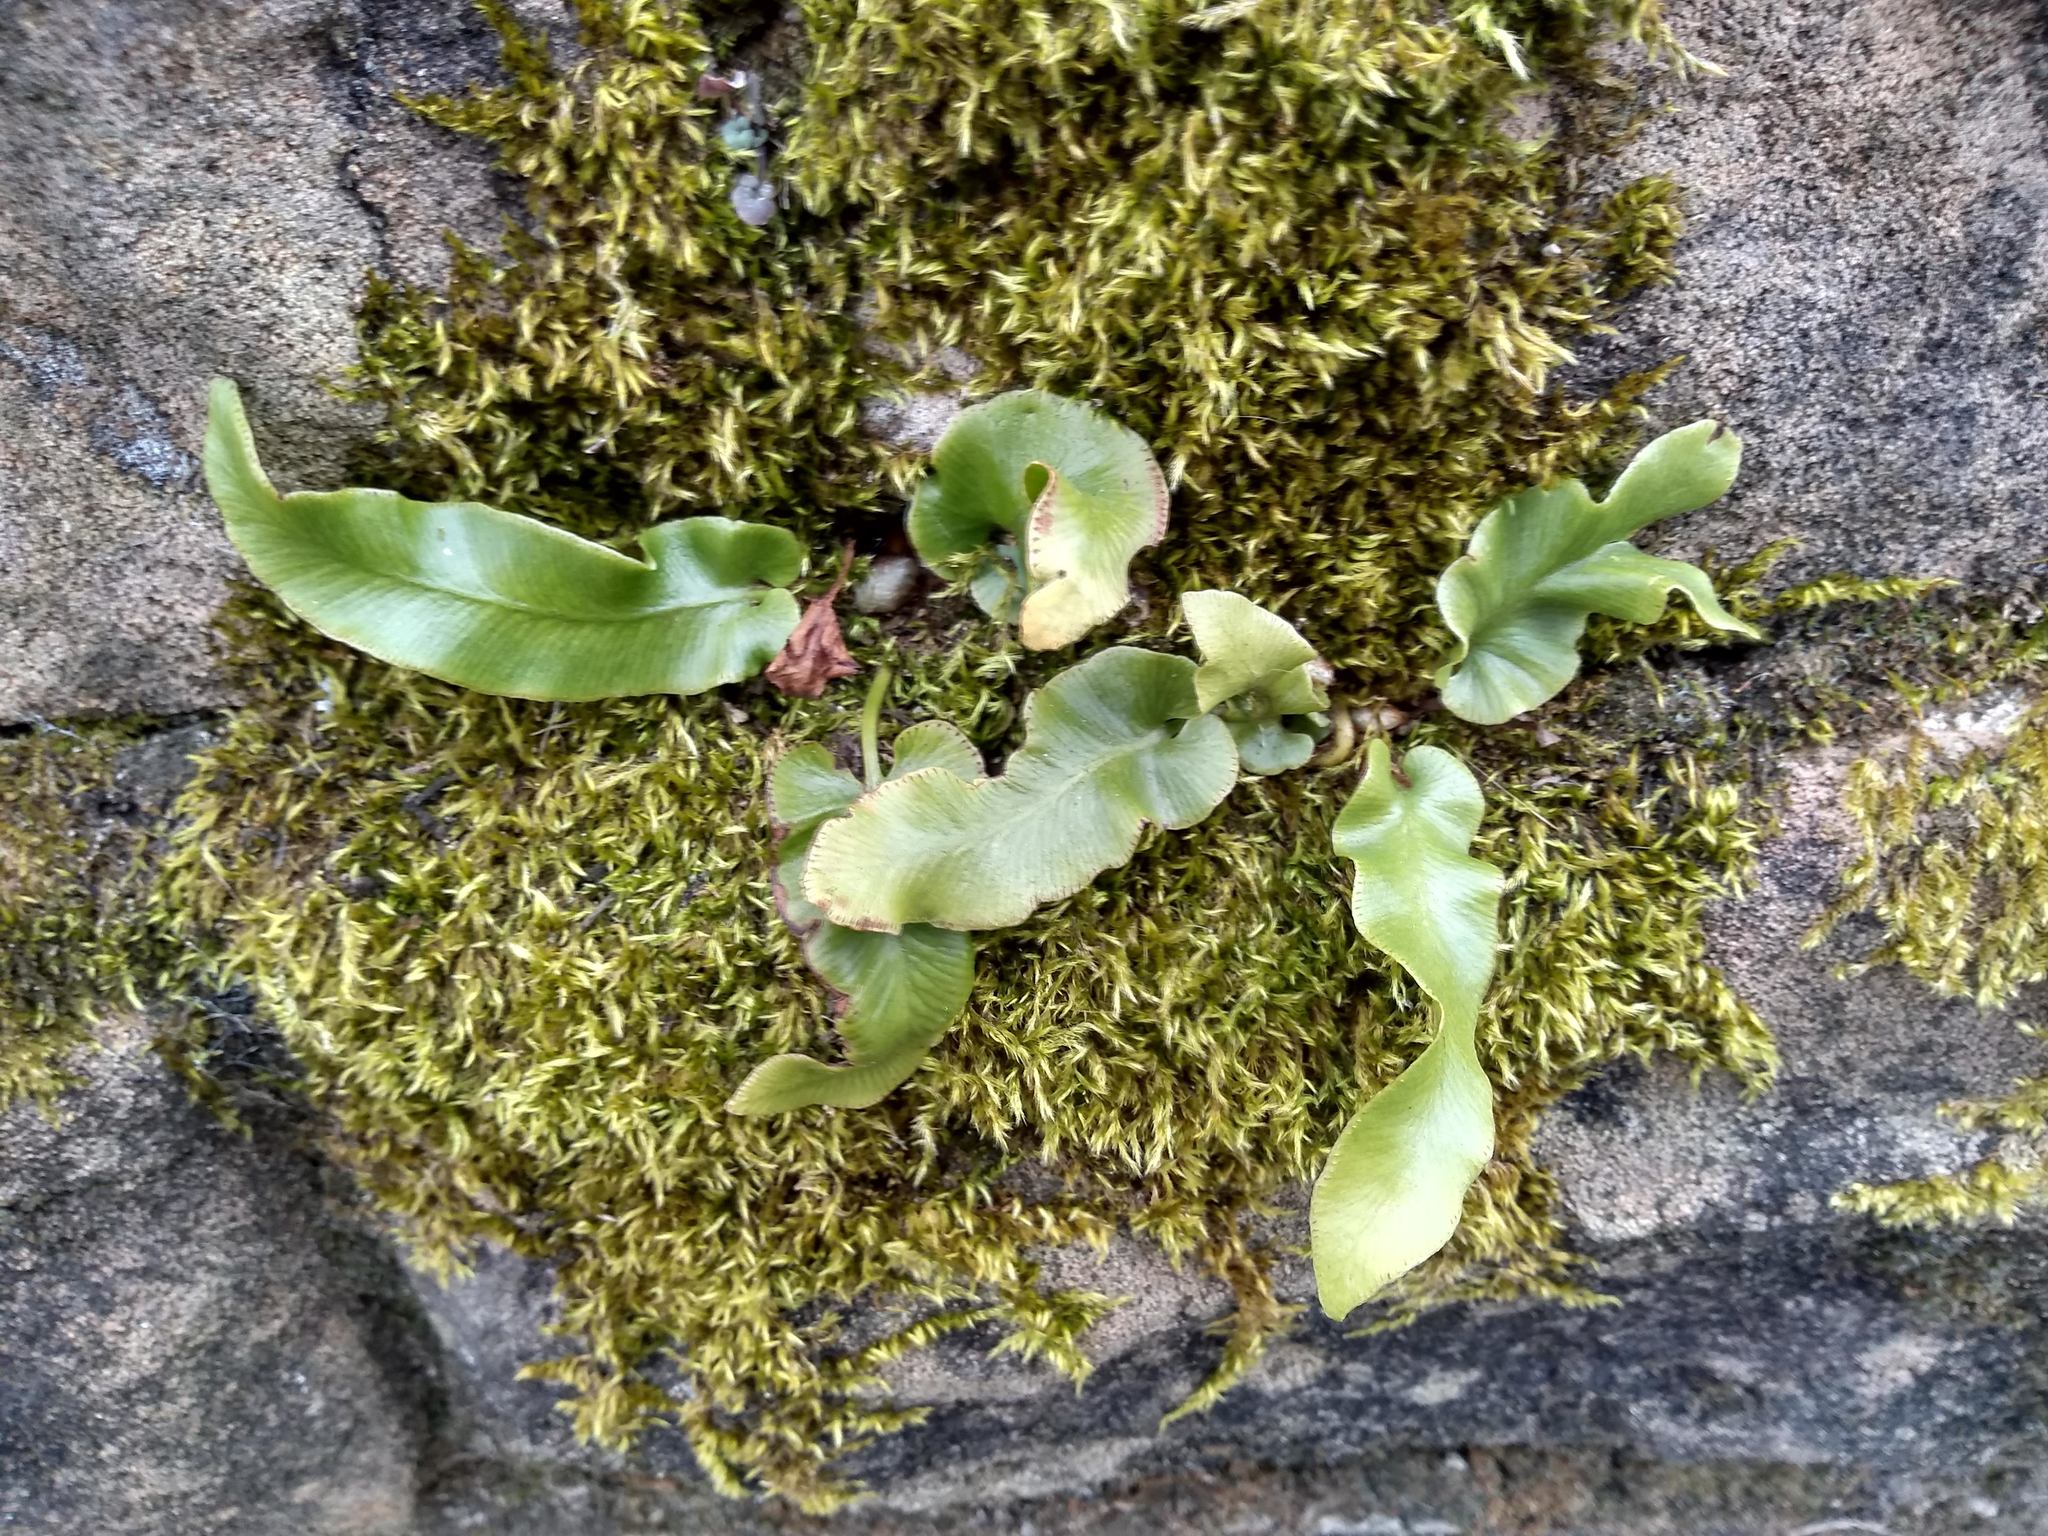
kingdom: Plantae
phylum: Tracheophyta
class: Polypodiopsida
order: Polypodiales
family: Aspleniaceae
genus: Asplenium
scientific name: Asplenium scolopendrium
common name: Hart's-tongue fern
